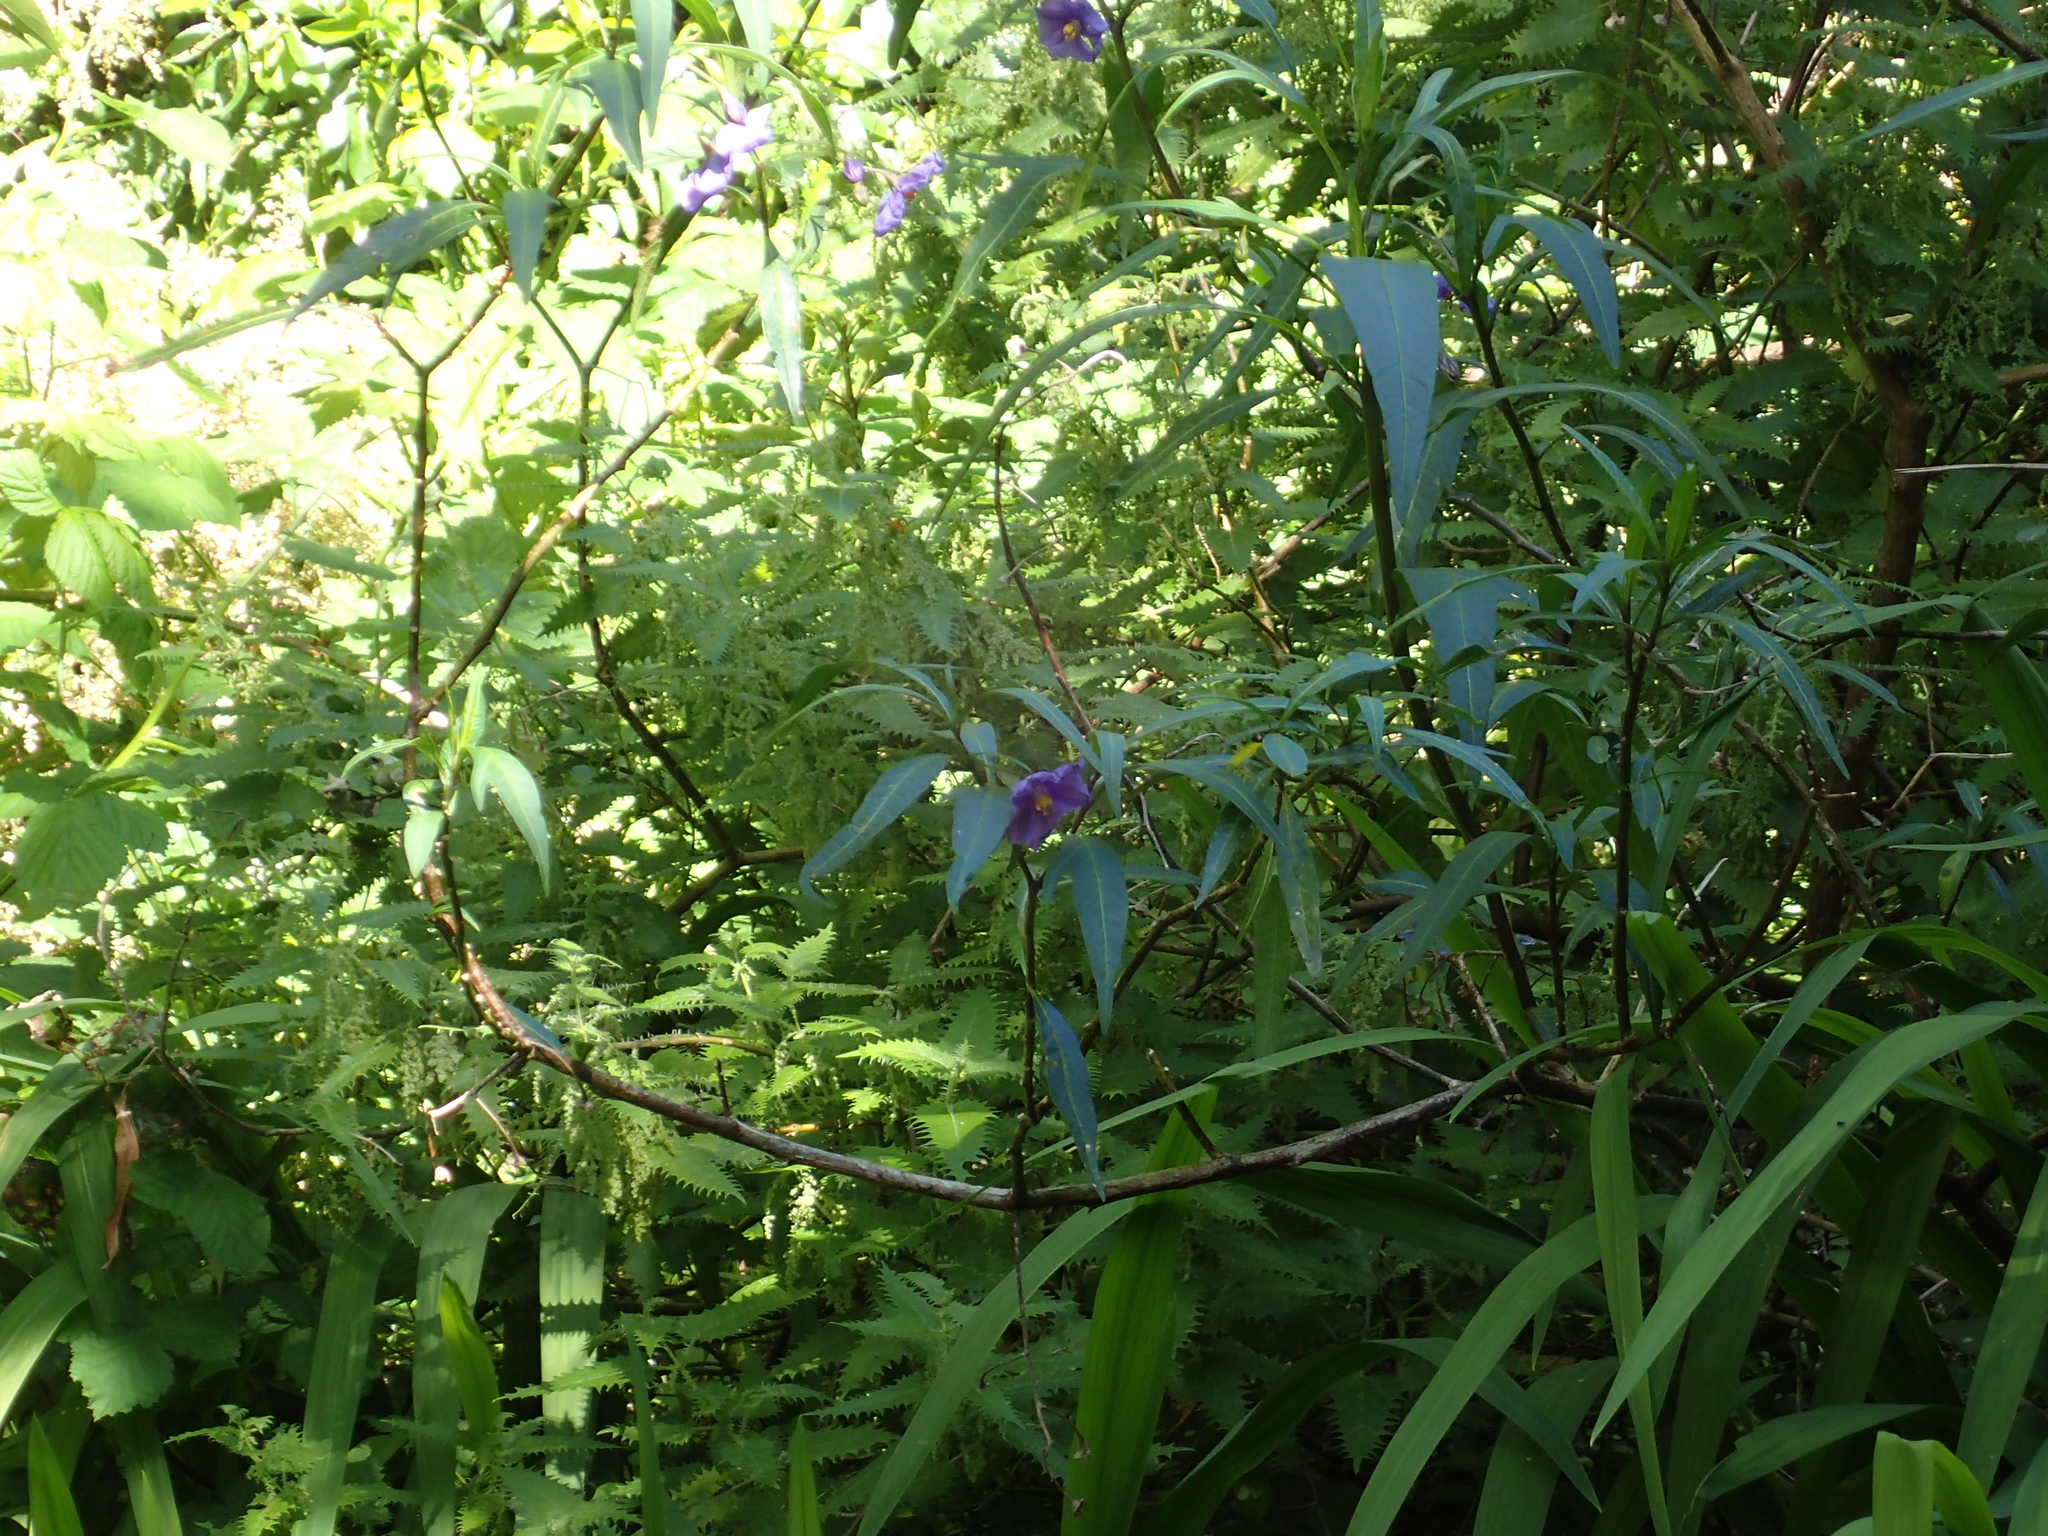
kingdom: Plantae
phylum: Tracheophyta
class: Magnoliopsida
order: Solanales
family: Solanaceae
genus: Solanum
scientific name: Solanum laciniatum
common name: Kangaroo-apple
